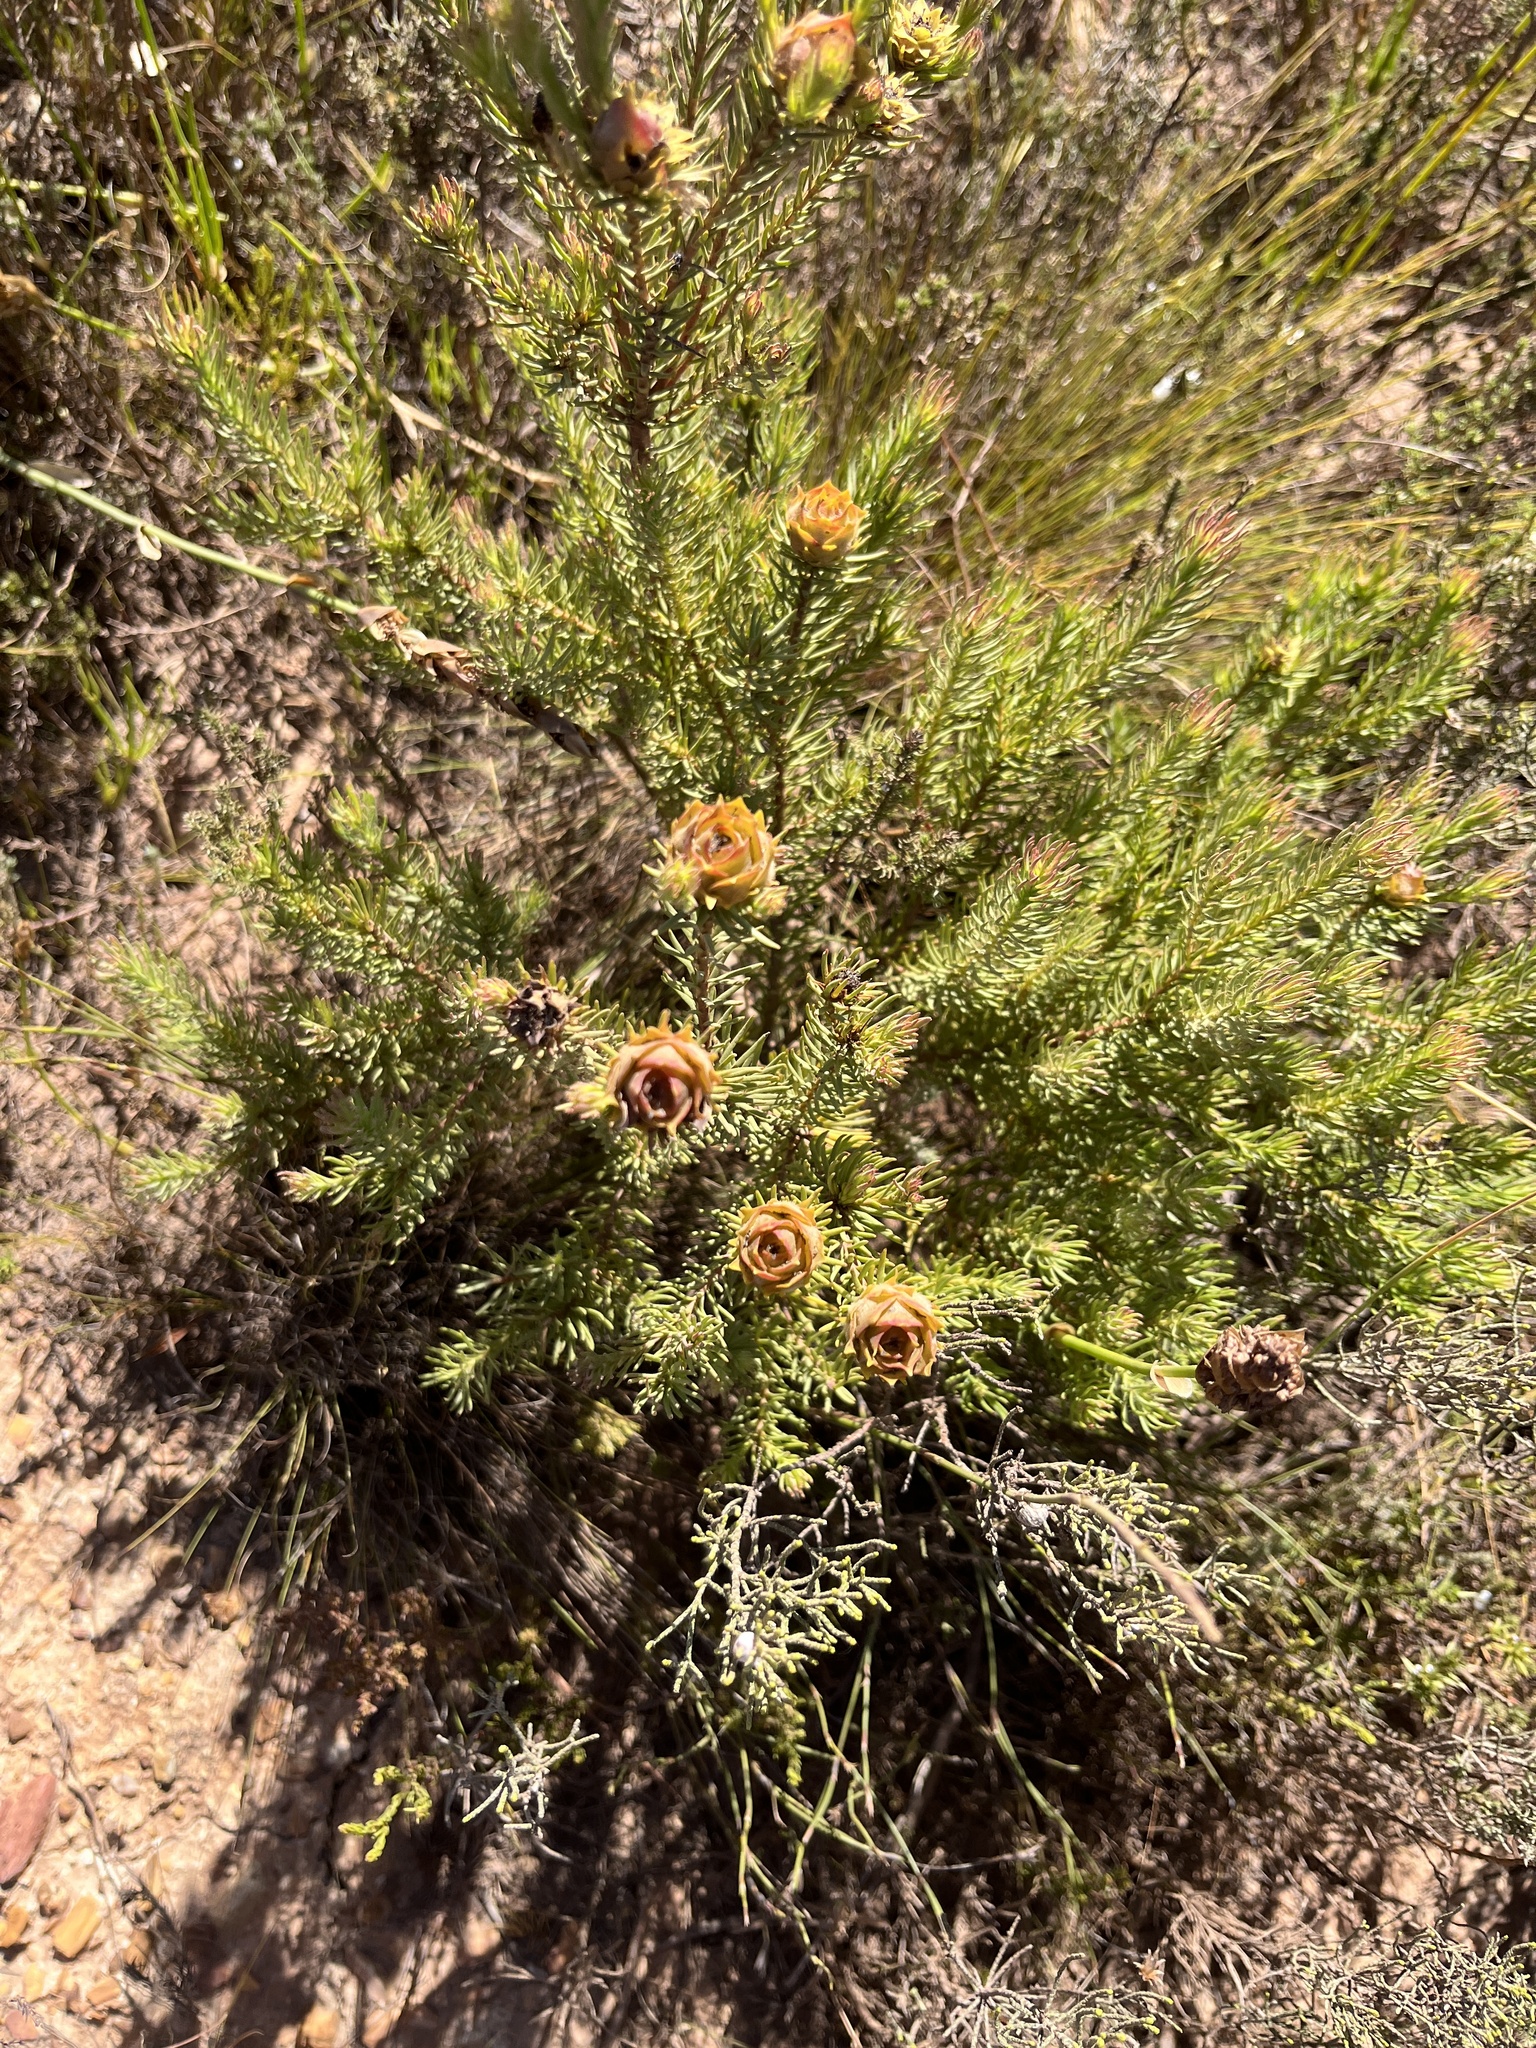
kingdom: Plantae
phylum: Tracheophyta
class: Magnoliopsida
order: Proteales
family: Proteaceae
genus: Leucadendron
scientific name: Leucadendron laxum
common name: Bredasdorp conebush
